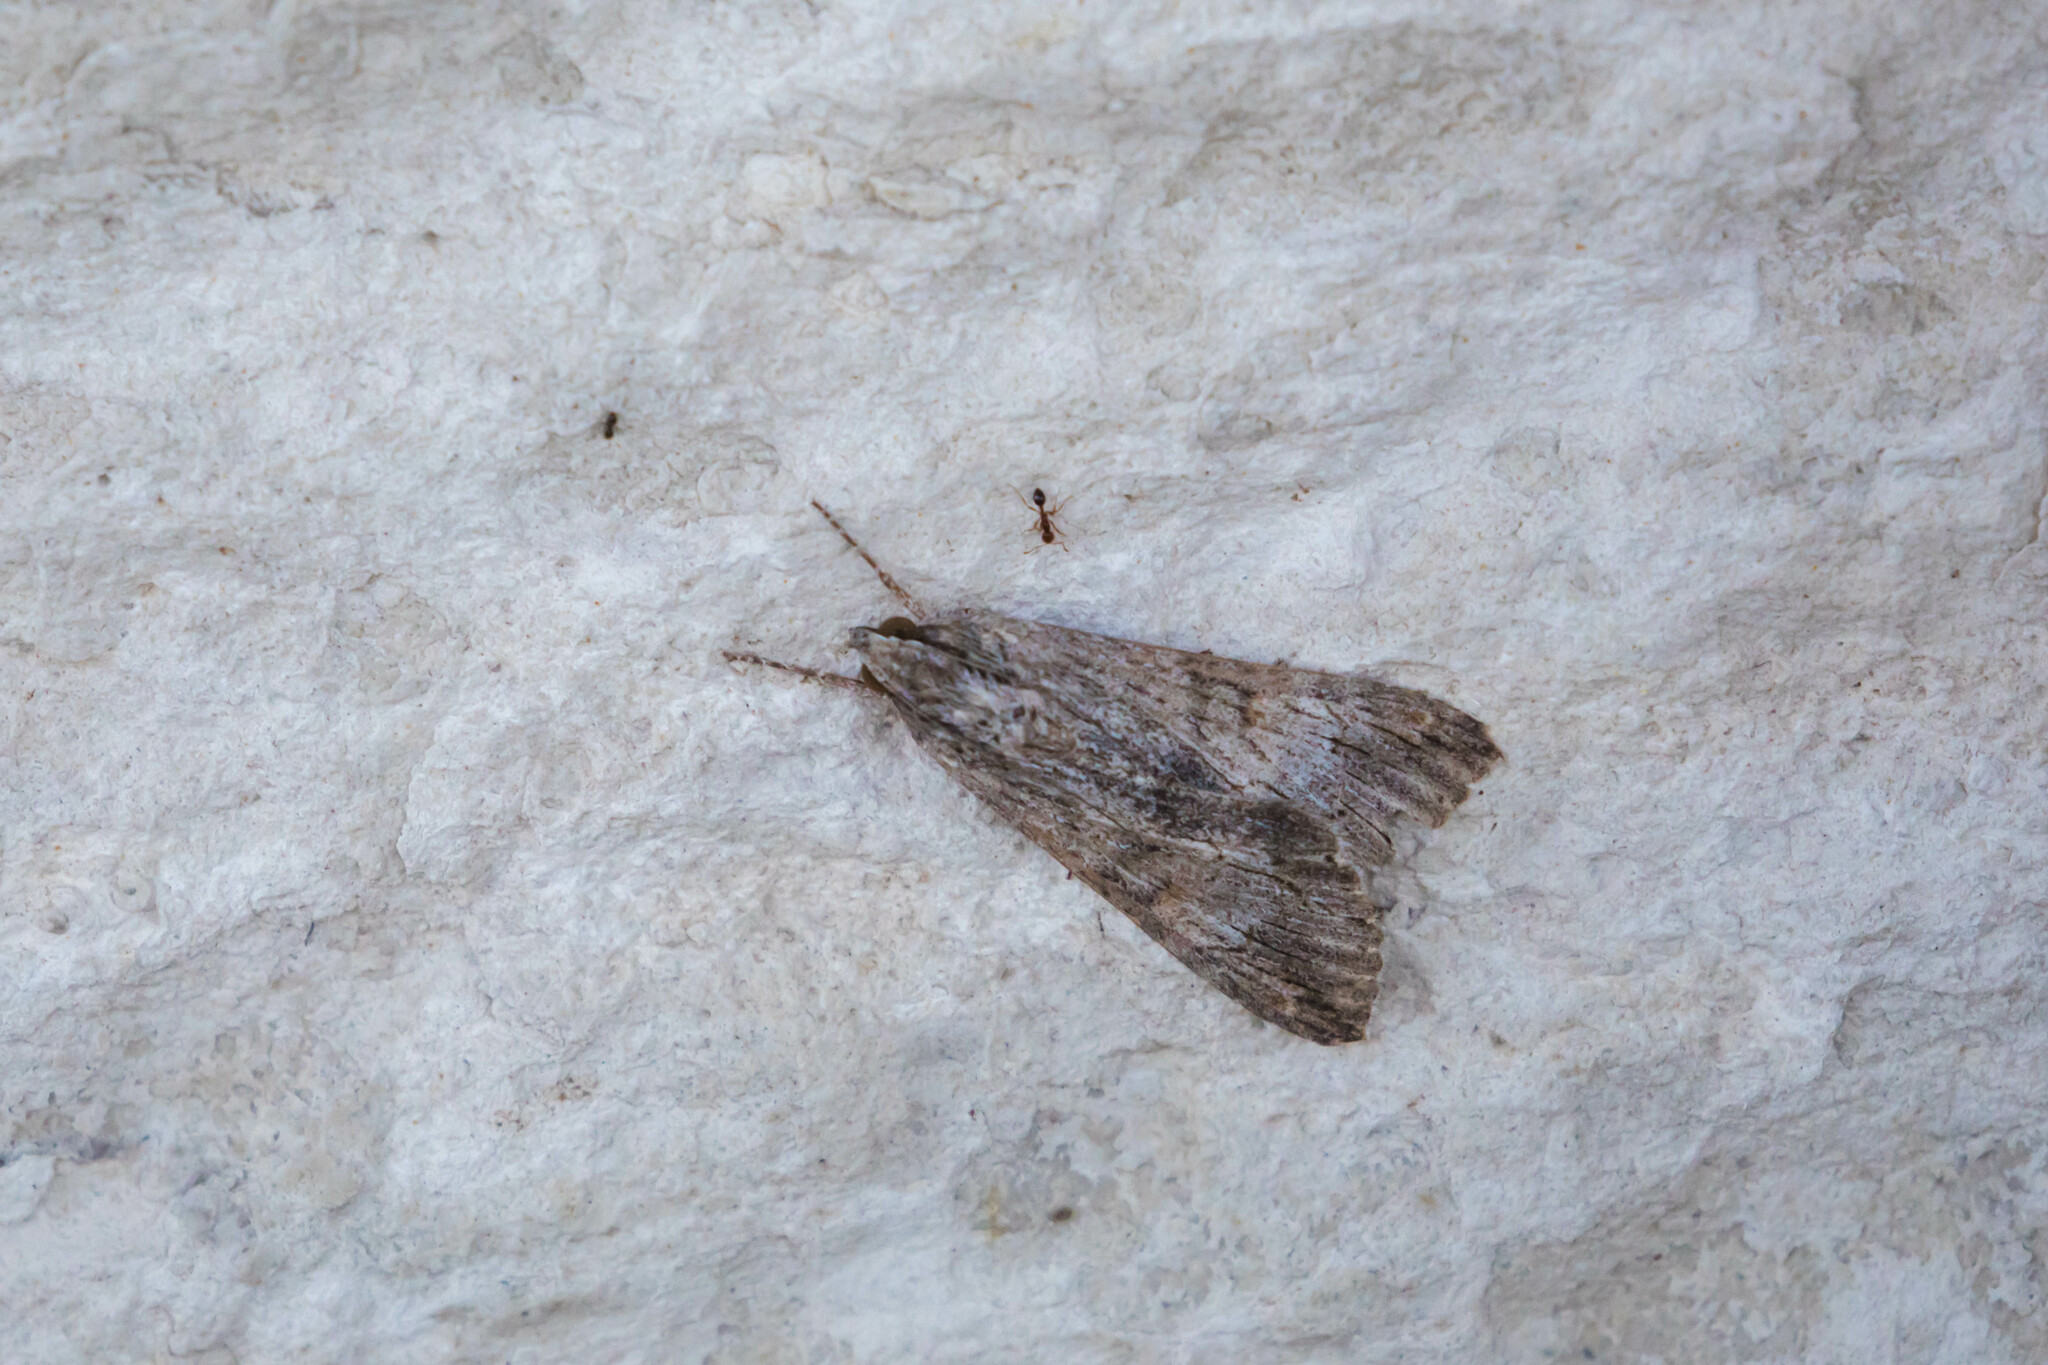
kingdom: Animalia
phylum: Arthropoda
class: Insecta
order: Lepidoptera
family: Erebidae
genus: Melipotis
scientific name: Melipotis acontioides
